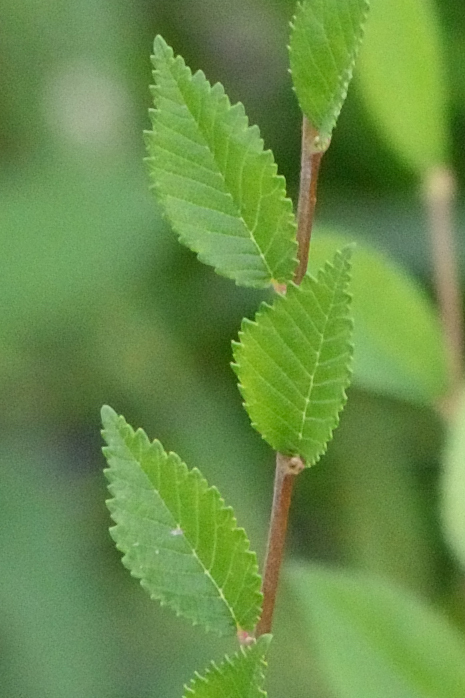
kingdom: Plantae
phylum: Tracheophyta
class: Magnoliopsida
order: Rosales
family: Ulmaceae
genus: Ulmus
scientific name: Ulmus pumila
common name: Siberian elm
